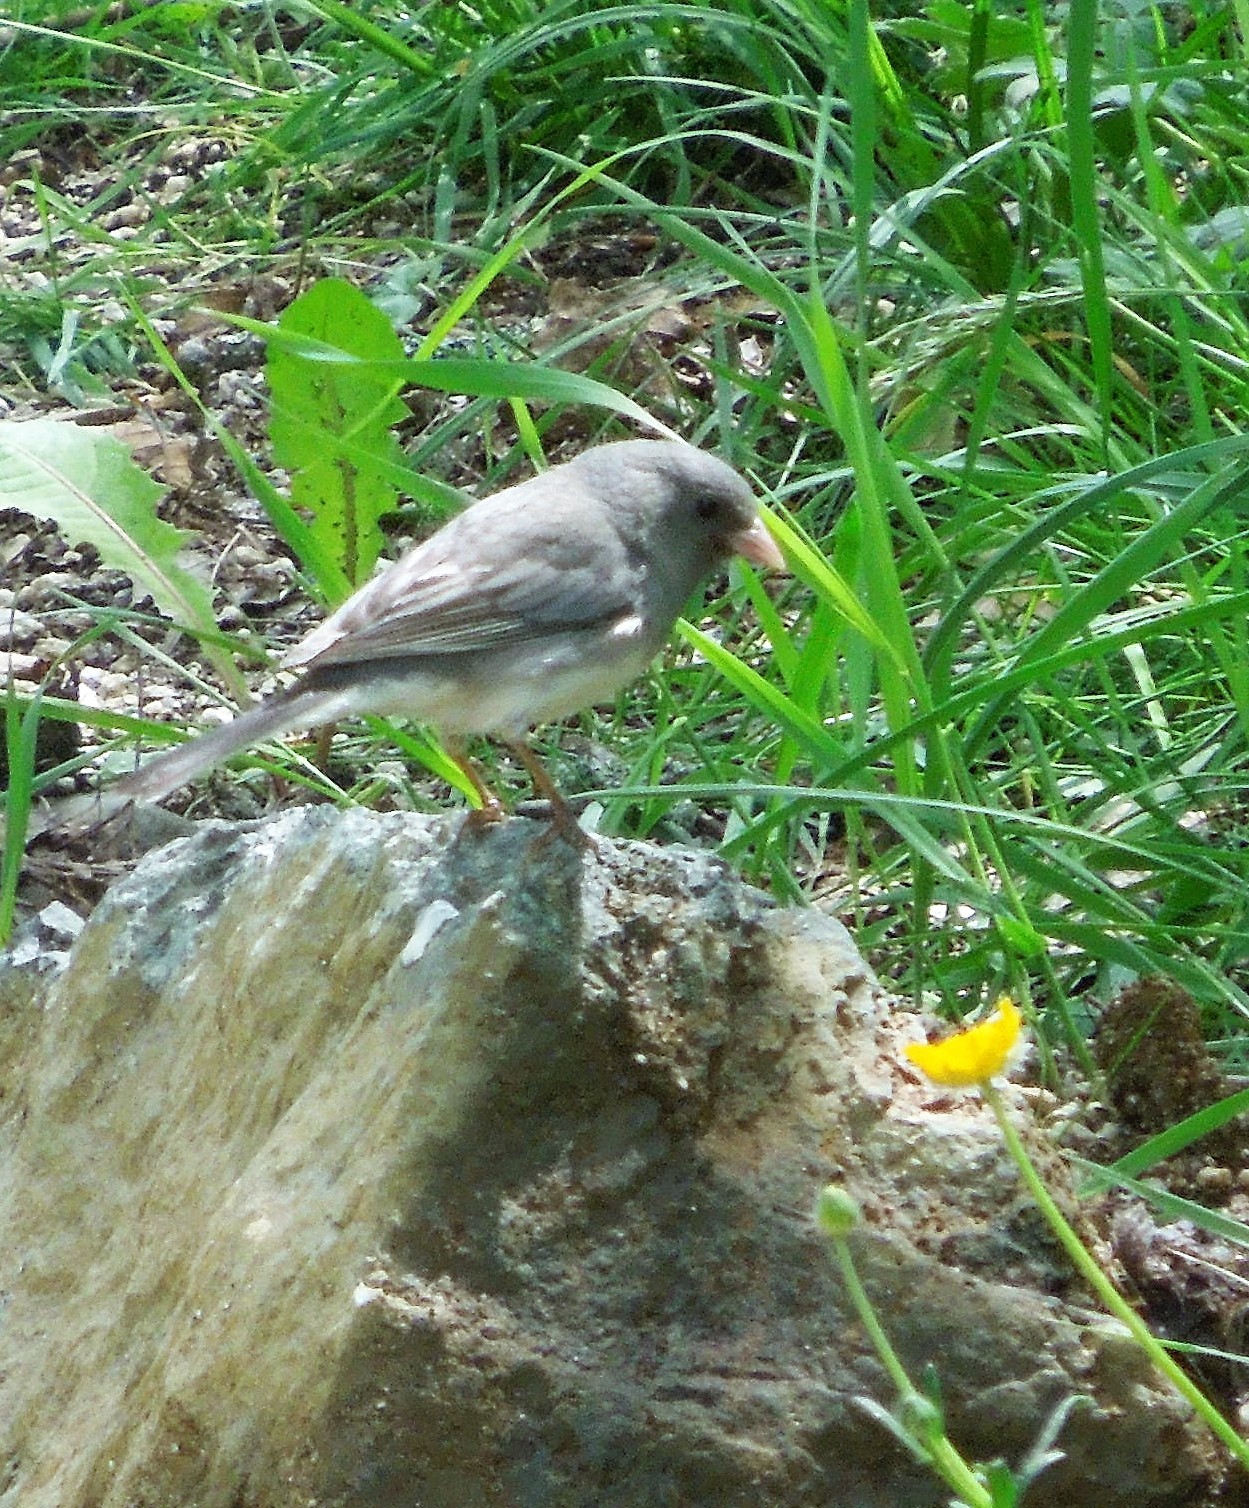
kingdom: Animalia
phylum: Chordata
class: Aves
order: Passeriformes
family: Passerellidae
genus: Junco
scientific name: Junco hyemalis
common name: Dark-eyed junco
